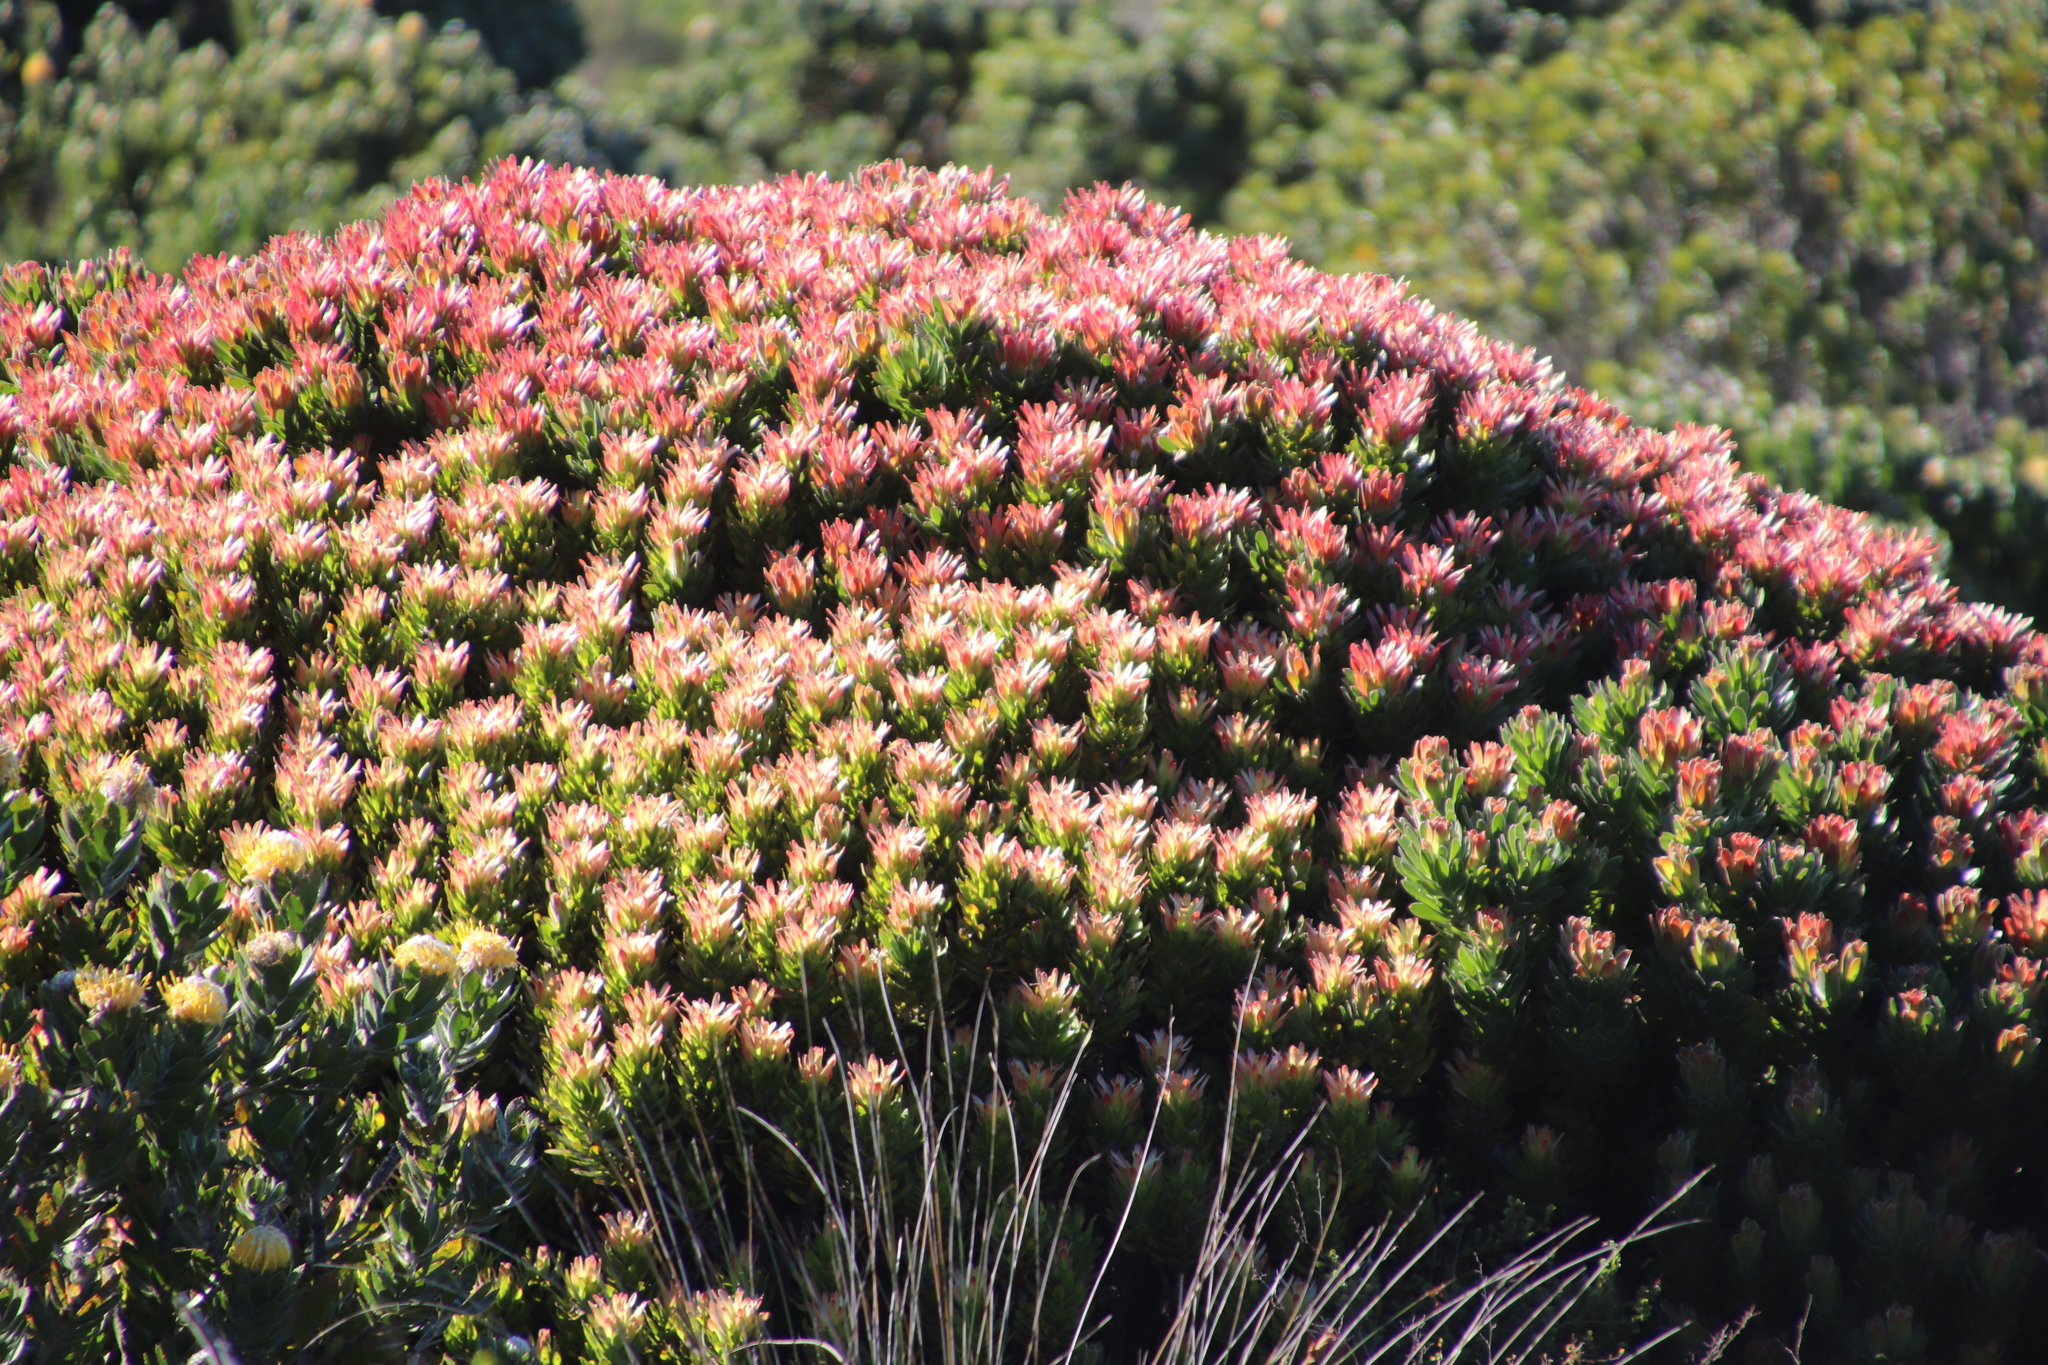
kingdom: Plantae
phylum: Tracheophyta
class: Magnoliopsida
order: Proteales
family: Proteaceae
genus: Mimetes
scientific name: Mimetes fimbriifolius
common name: Fringed bottlebrush
